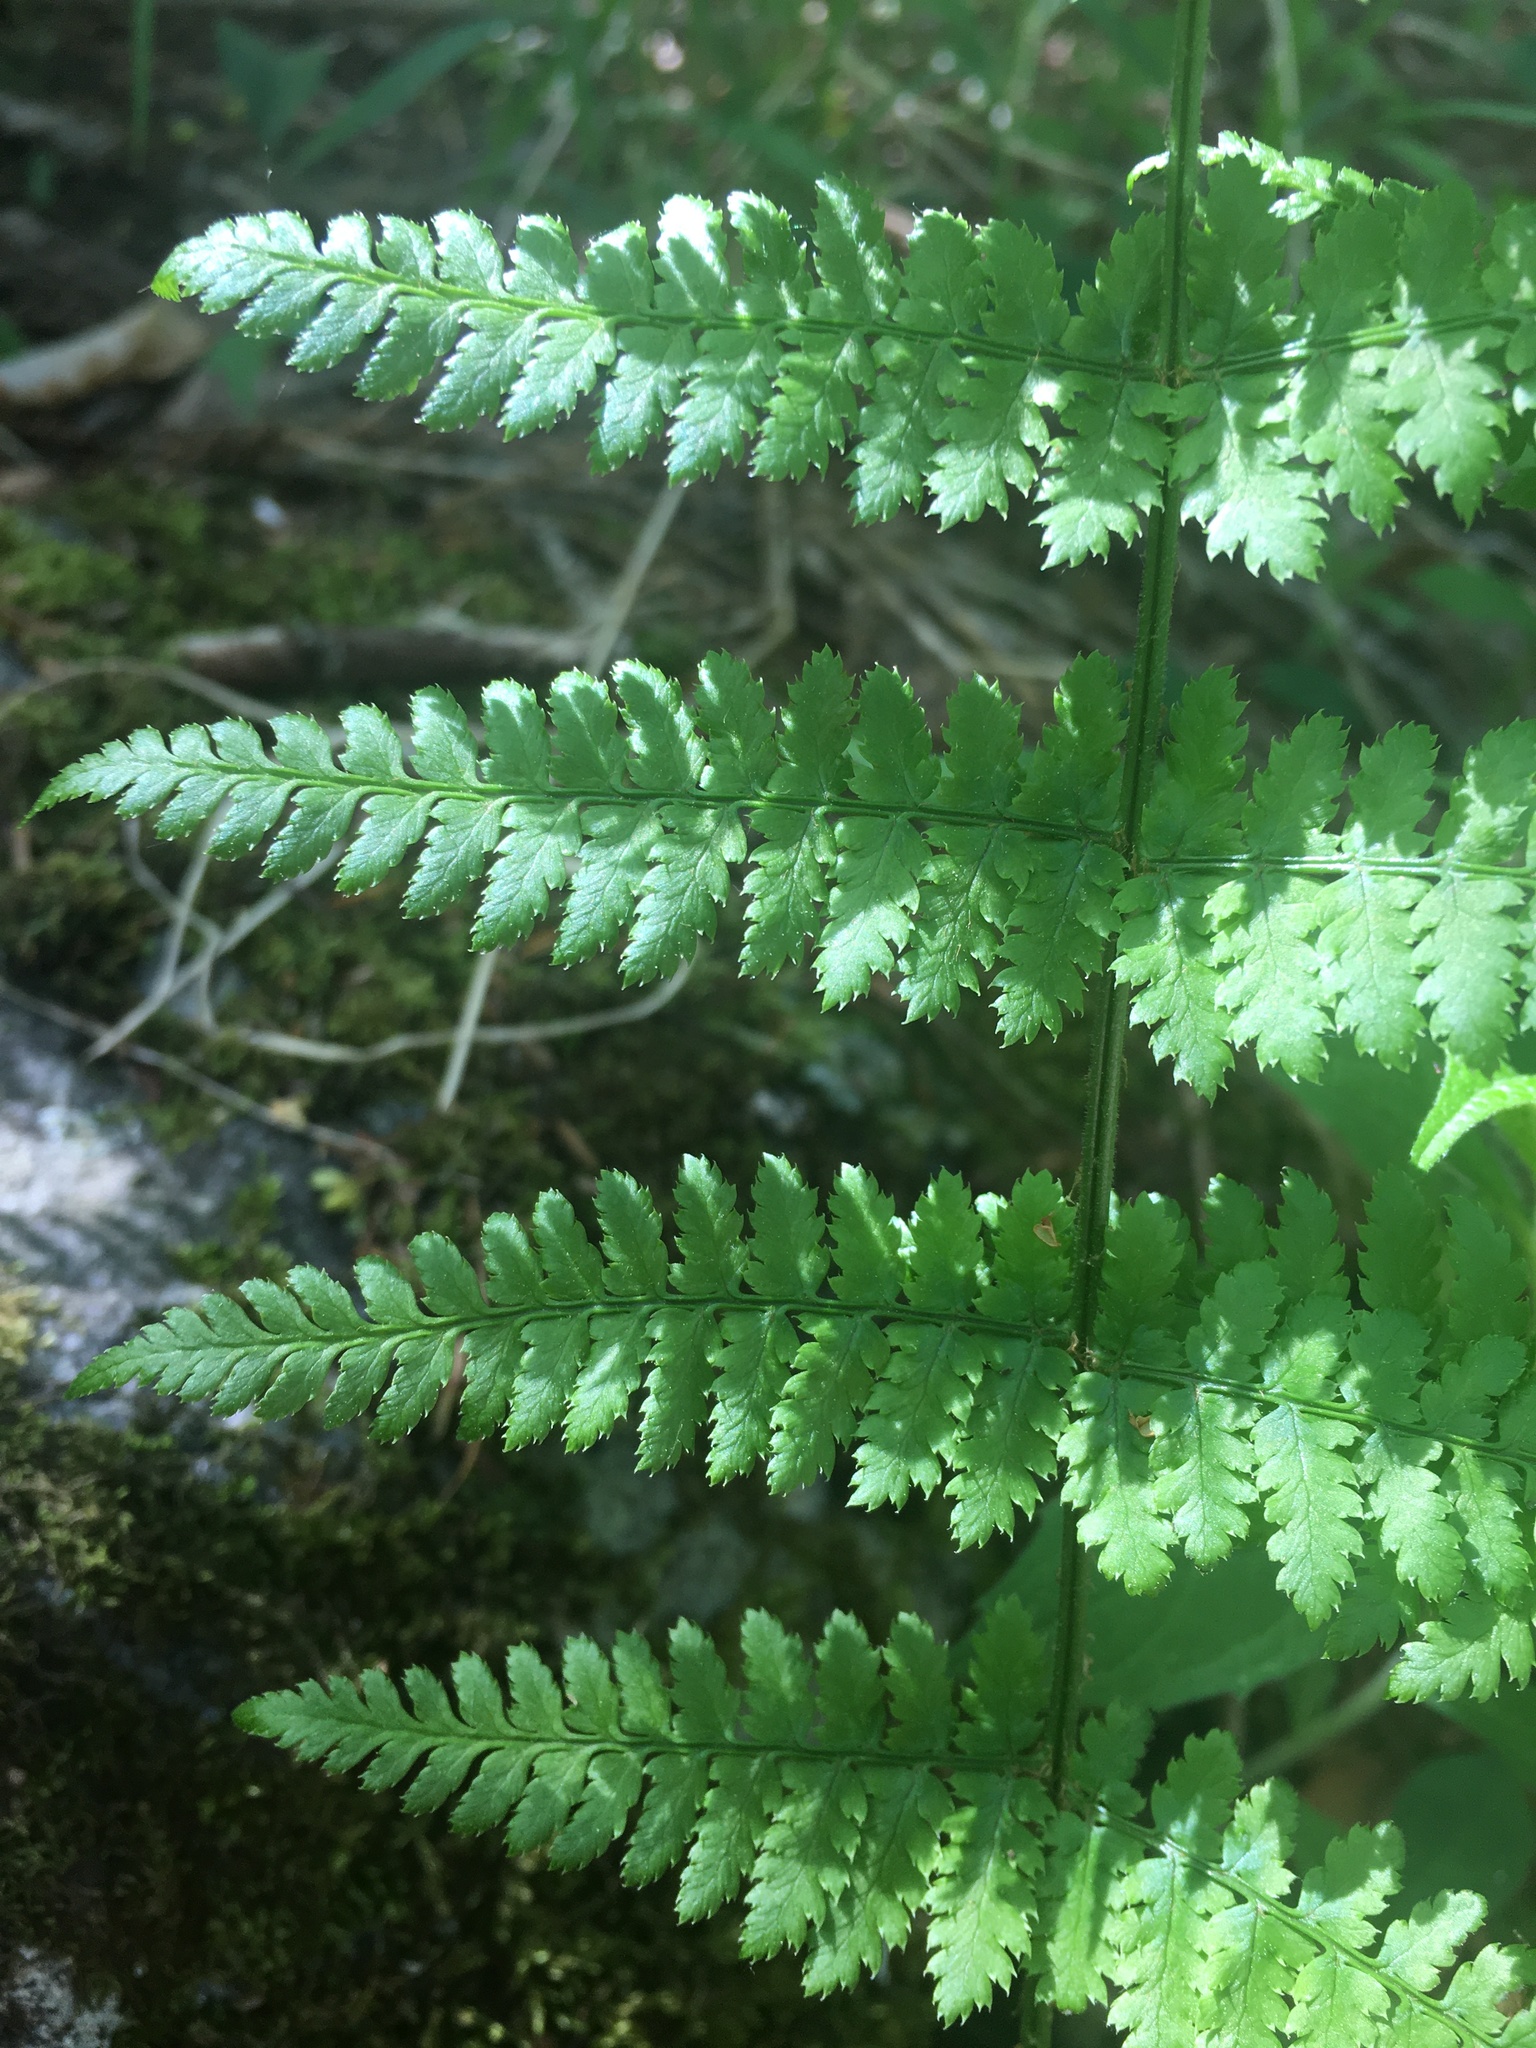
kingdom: Plantae
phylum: Tracheophyta
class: Polypodiopsida
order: Polypodiales
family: Dryopteridaceae
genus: Dryopteris
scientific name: Dryopteris intermedia
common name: Evergreen wood fern
